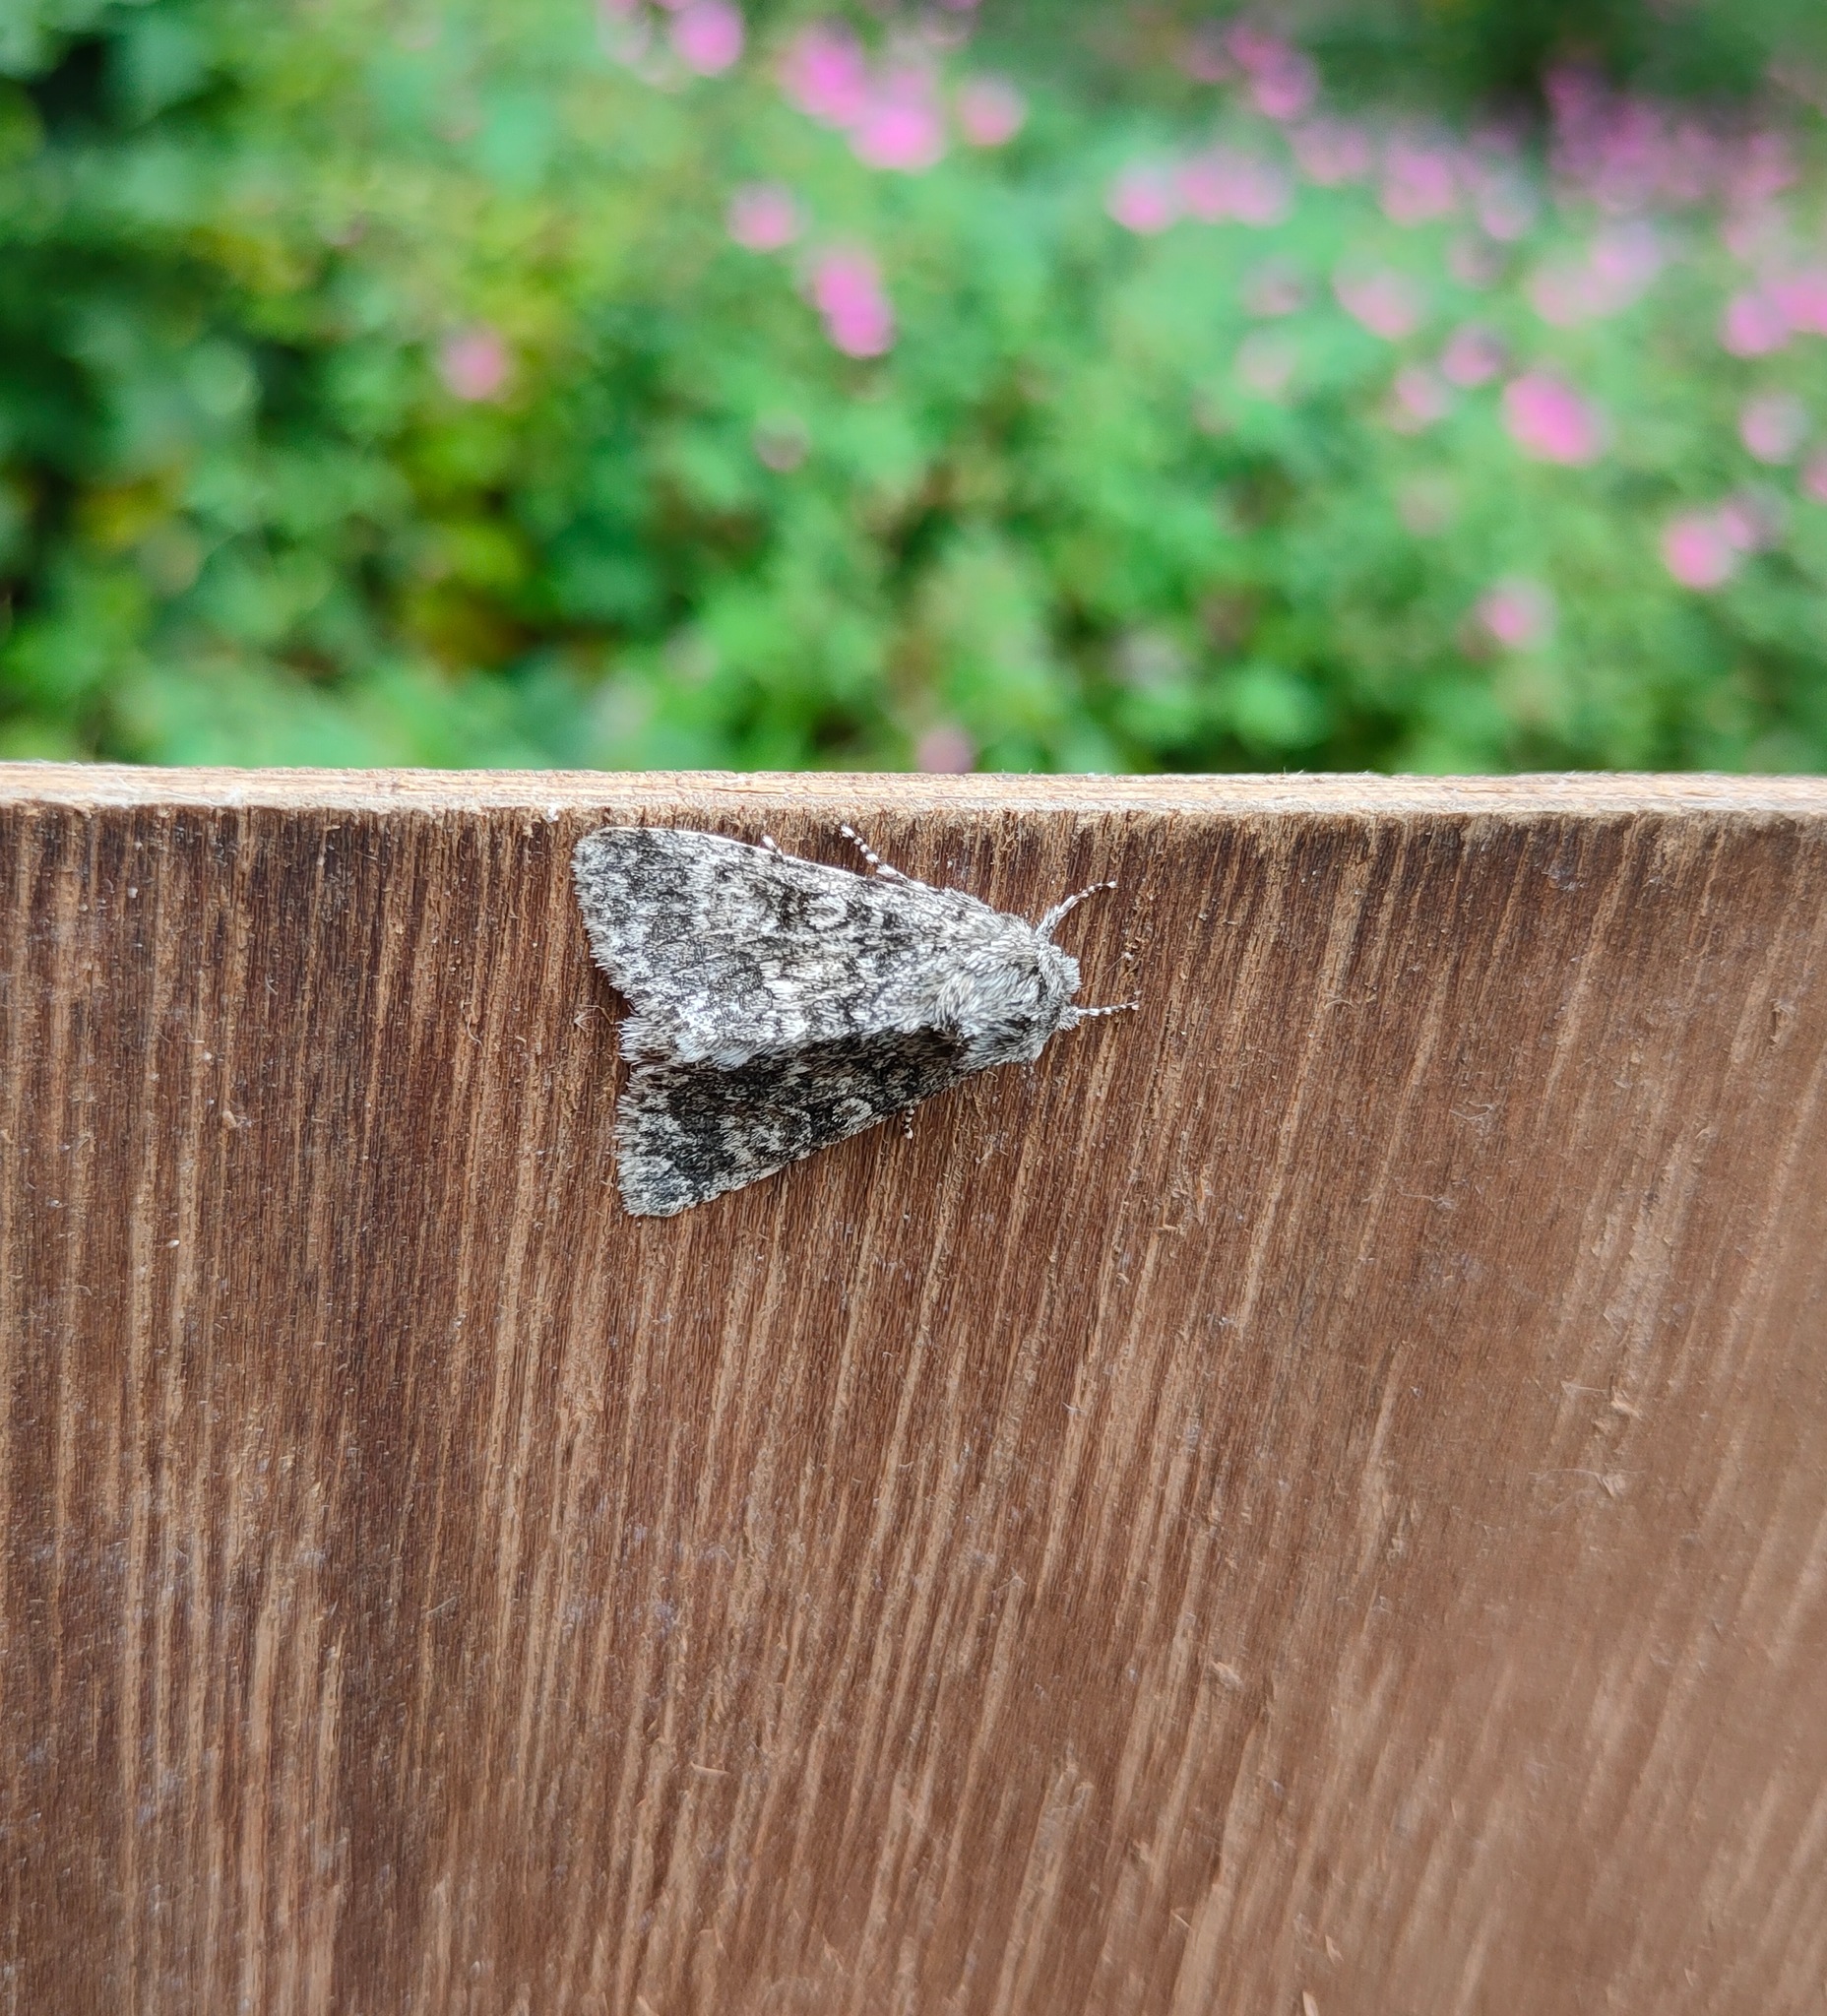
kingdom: Animalia
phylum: Arthropoda
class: Insecta
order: Lepidoptera
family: Noctuidae
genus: Acronicta
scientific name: Acronicta megacephala
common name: Poplar grey
